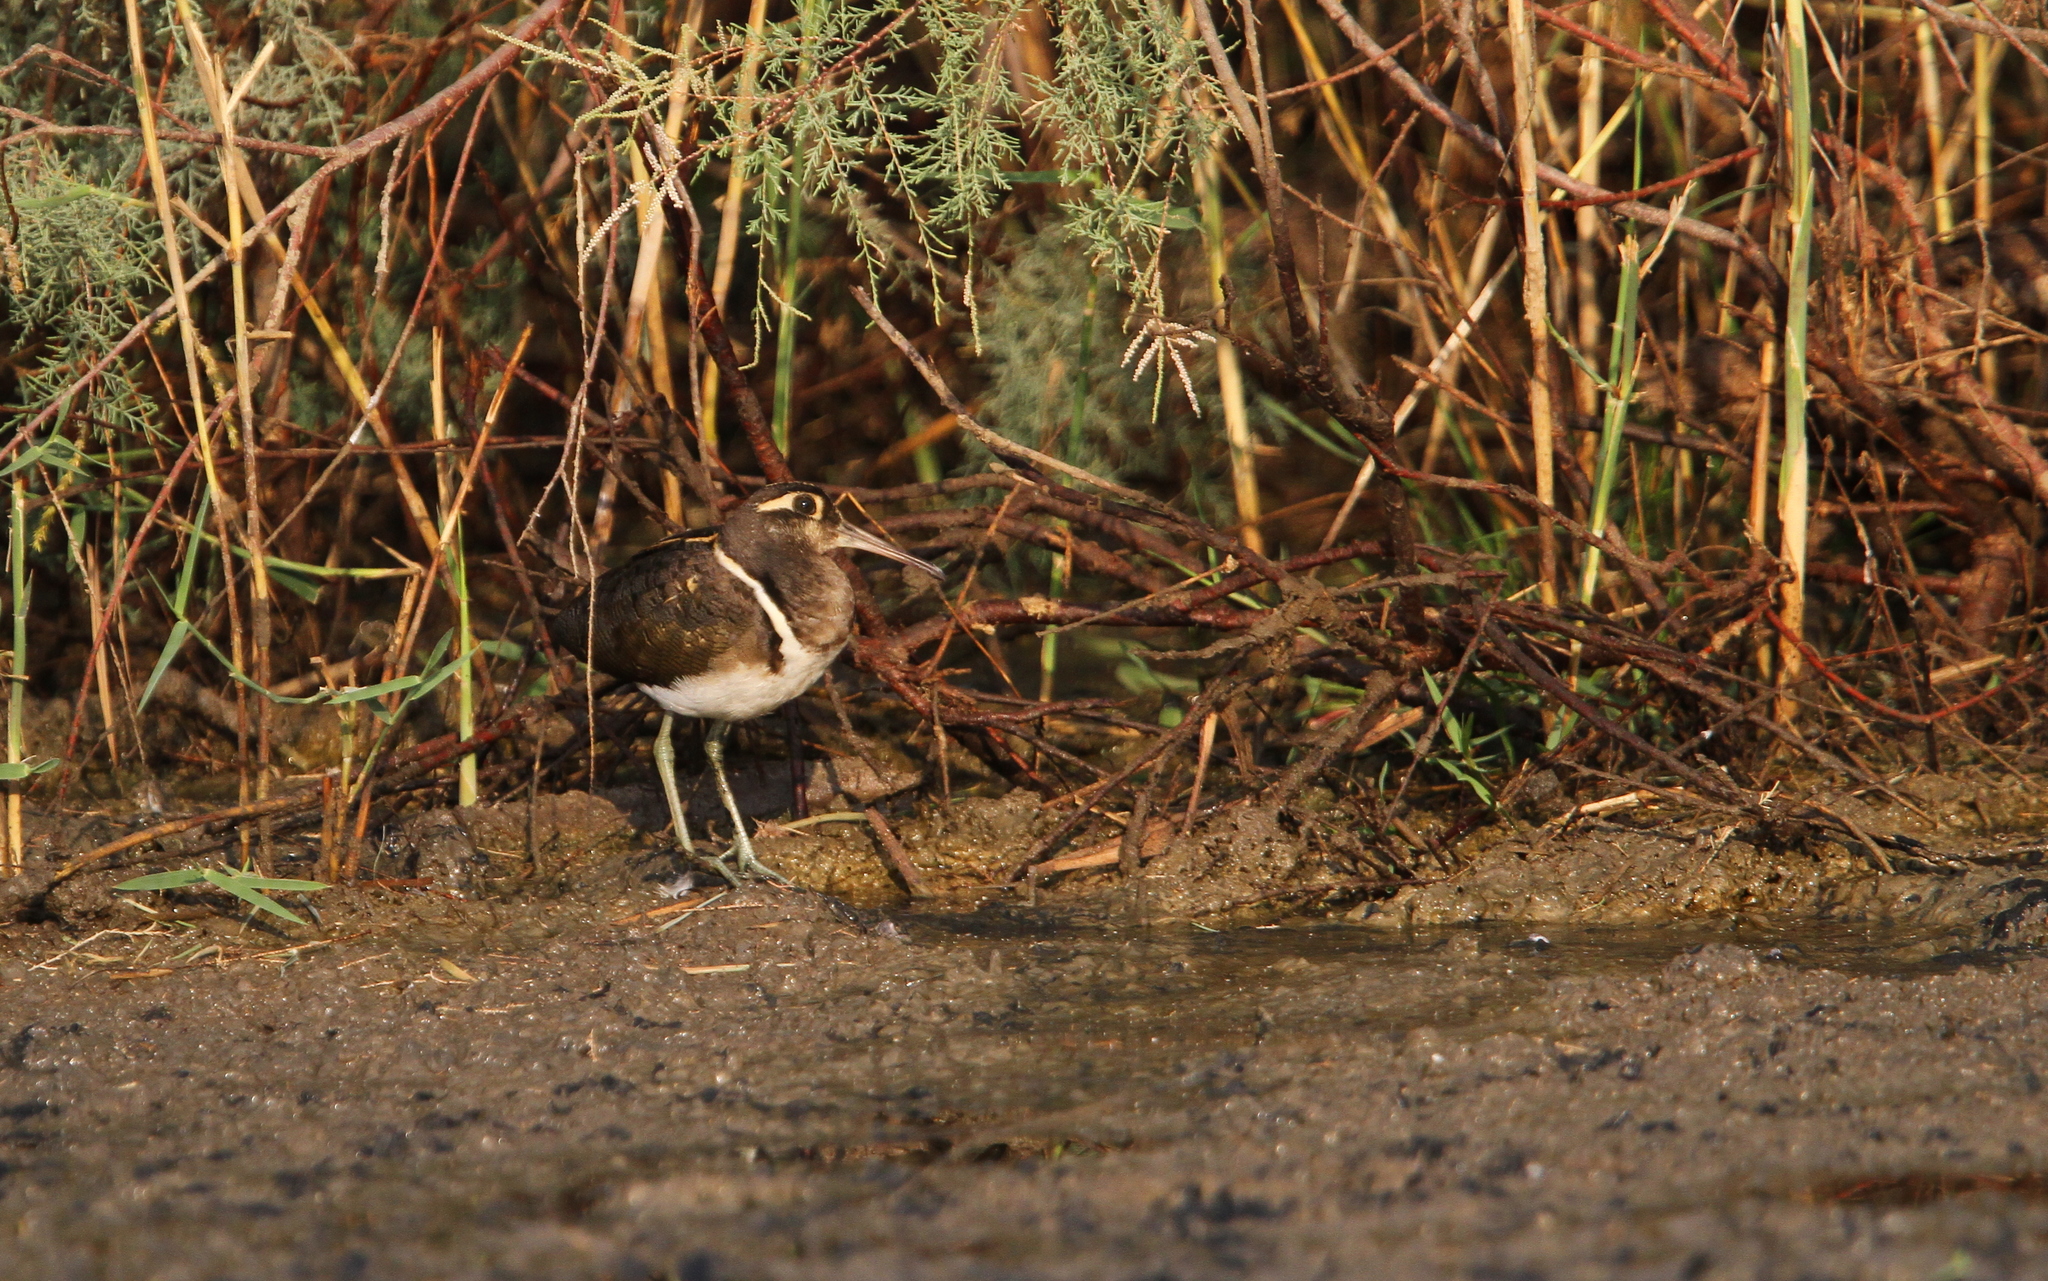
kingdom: Animalia
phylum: Chordata
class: Aves
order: Charadriiformes
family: Rostratulidae
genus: Rostratula
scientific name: Rostratula benghalensis
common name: Greater painted-snipe
